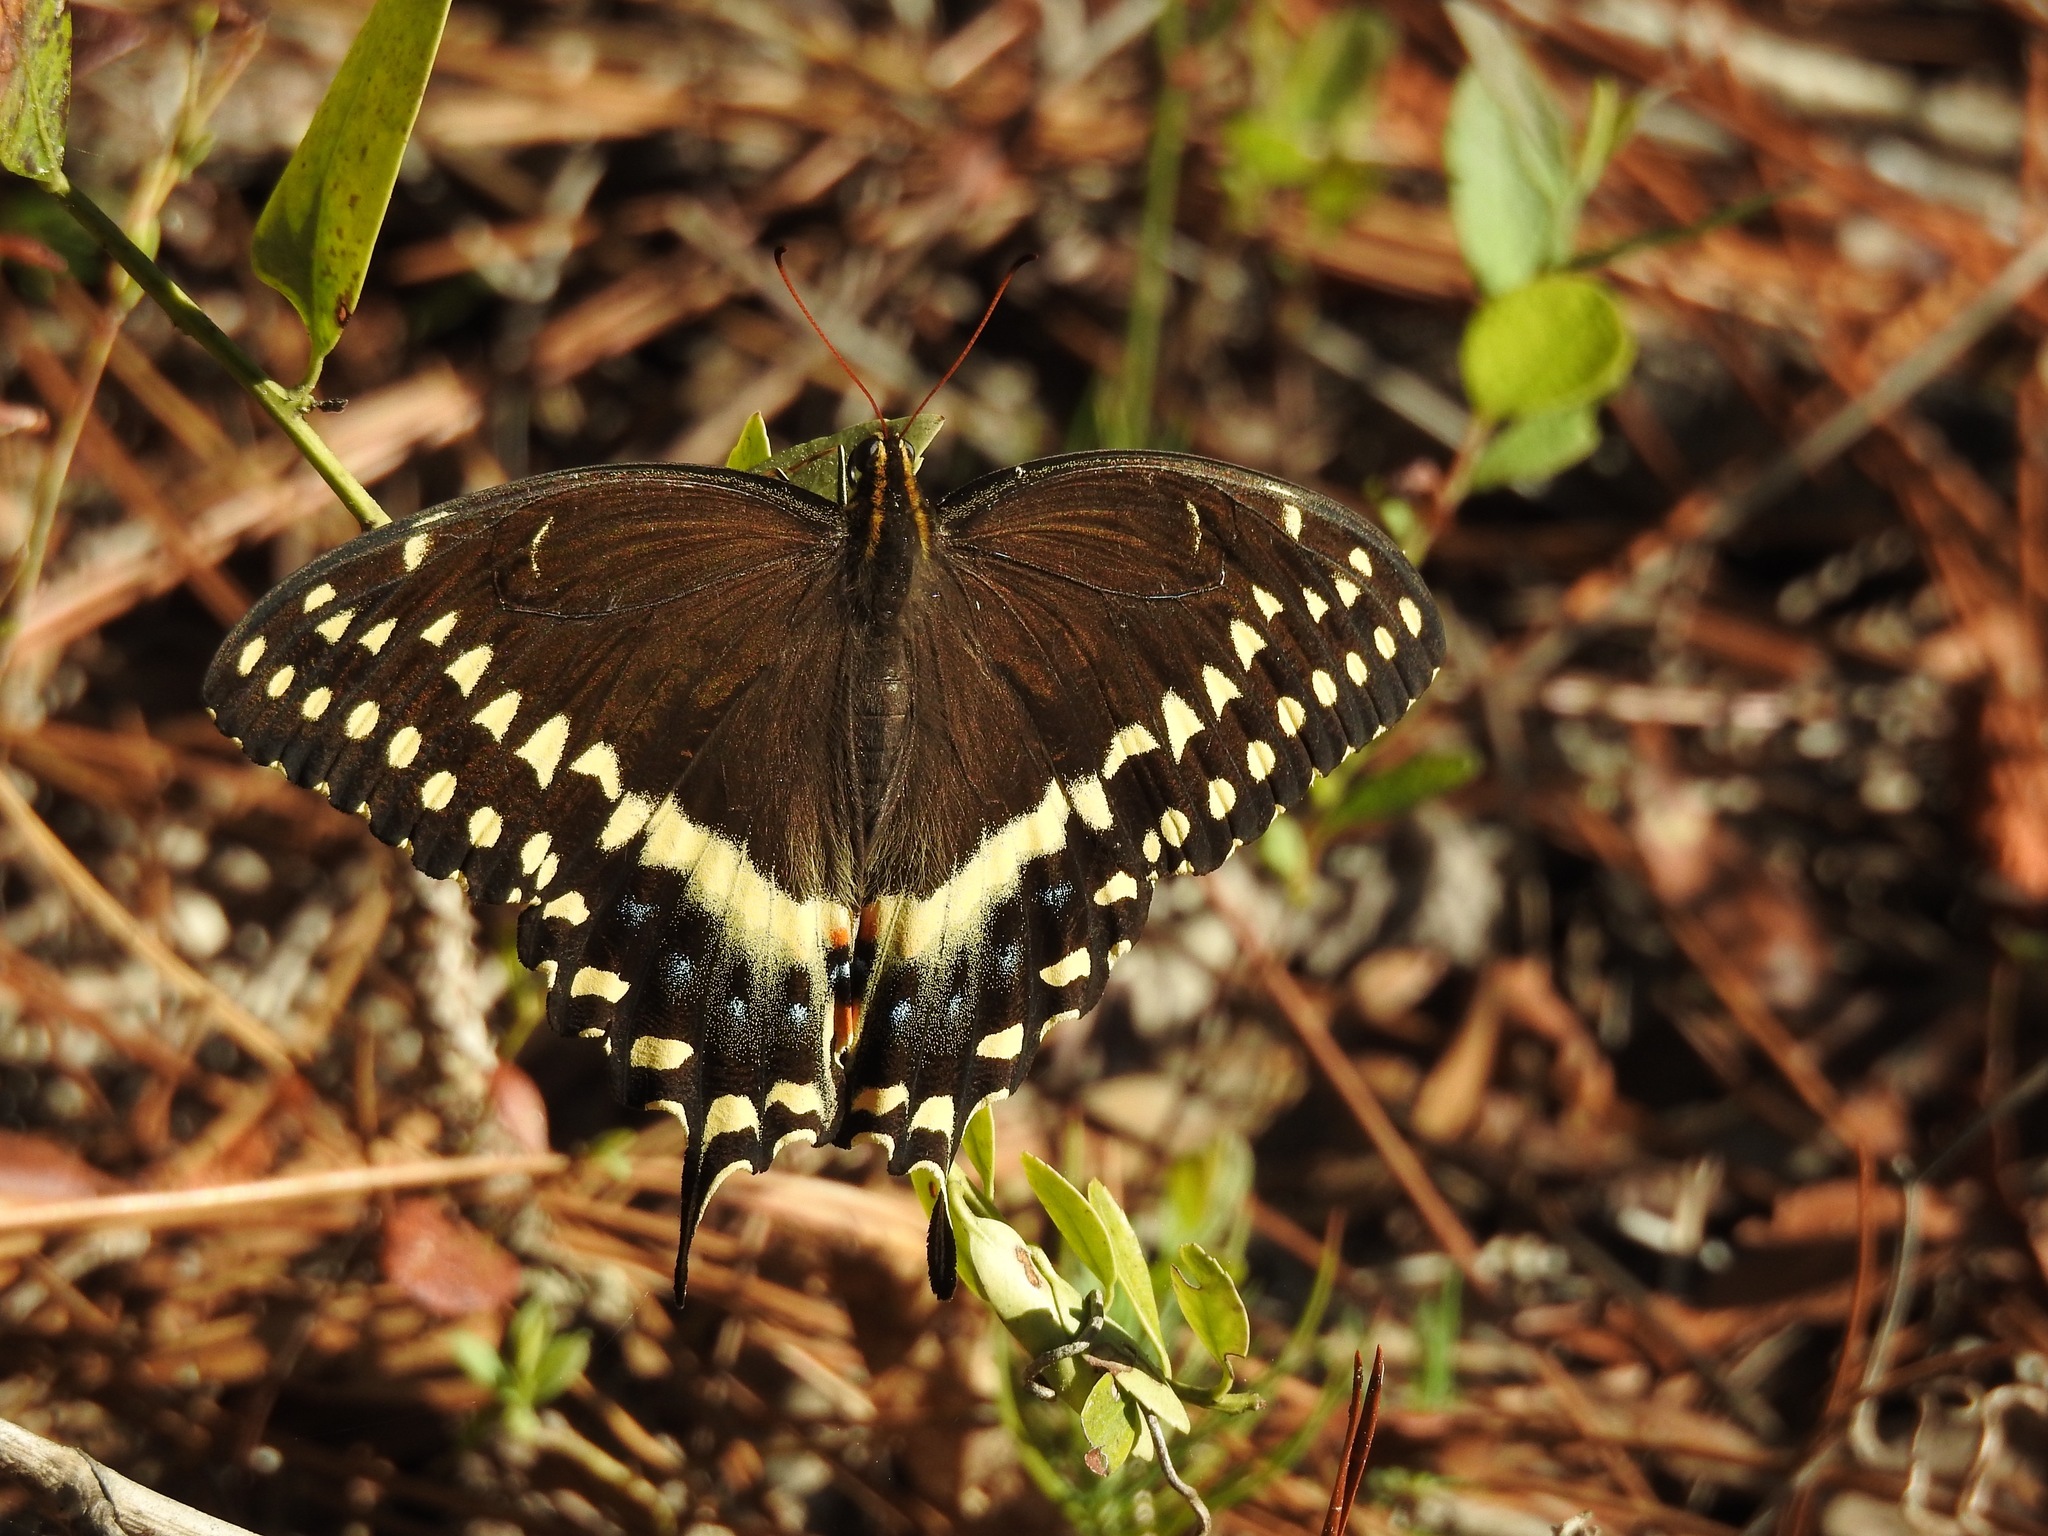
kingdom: Animalia
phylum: Arthropoda
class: Insecta
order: Lepidoptera
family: Papilionidae
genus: Papilio
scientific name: Papilio palamedes
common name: Palamedes swallowtail
